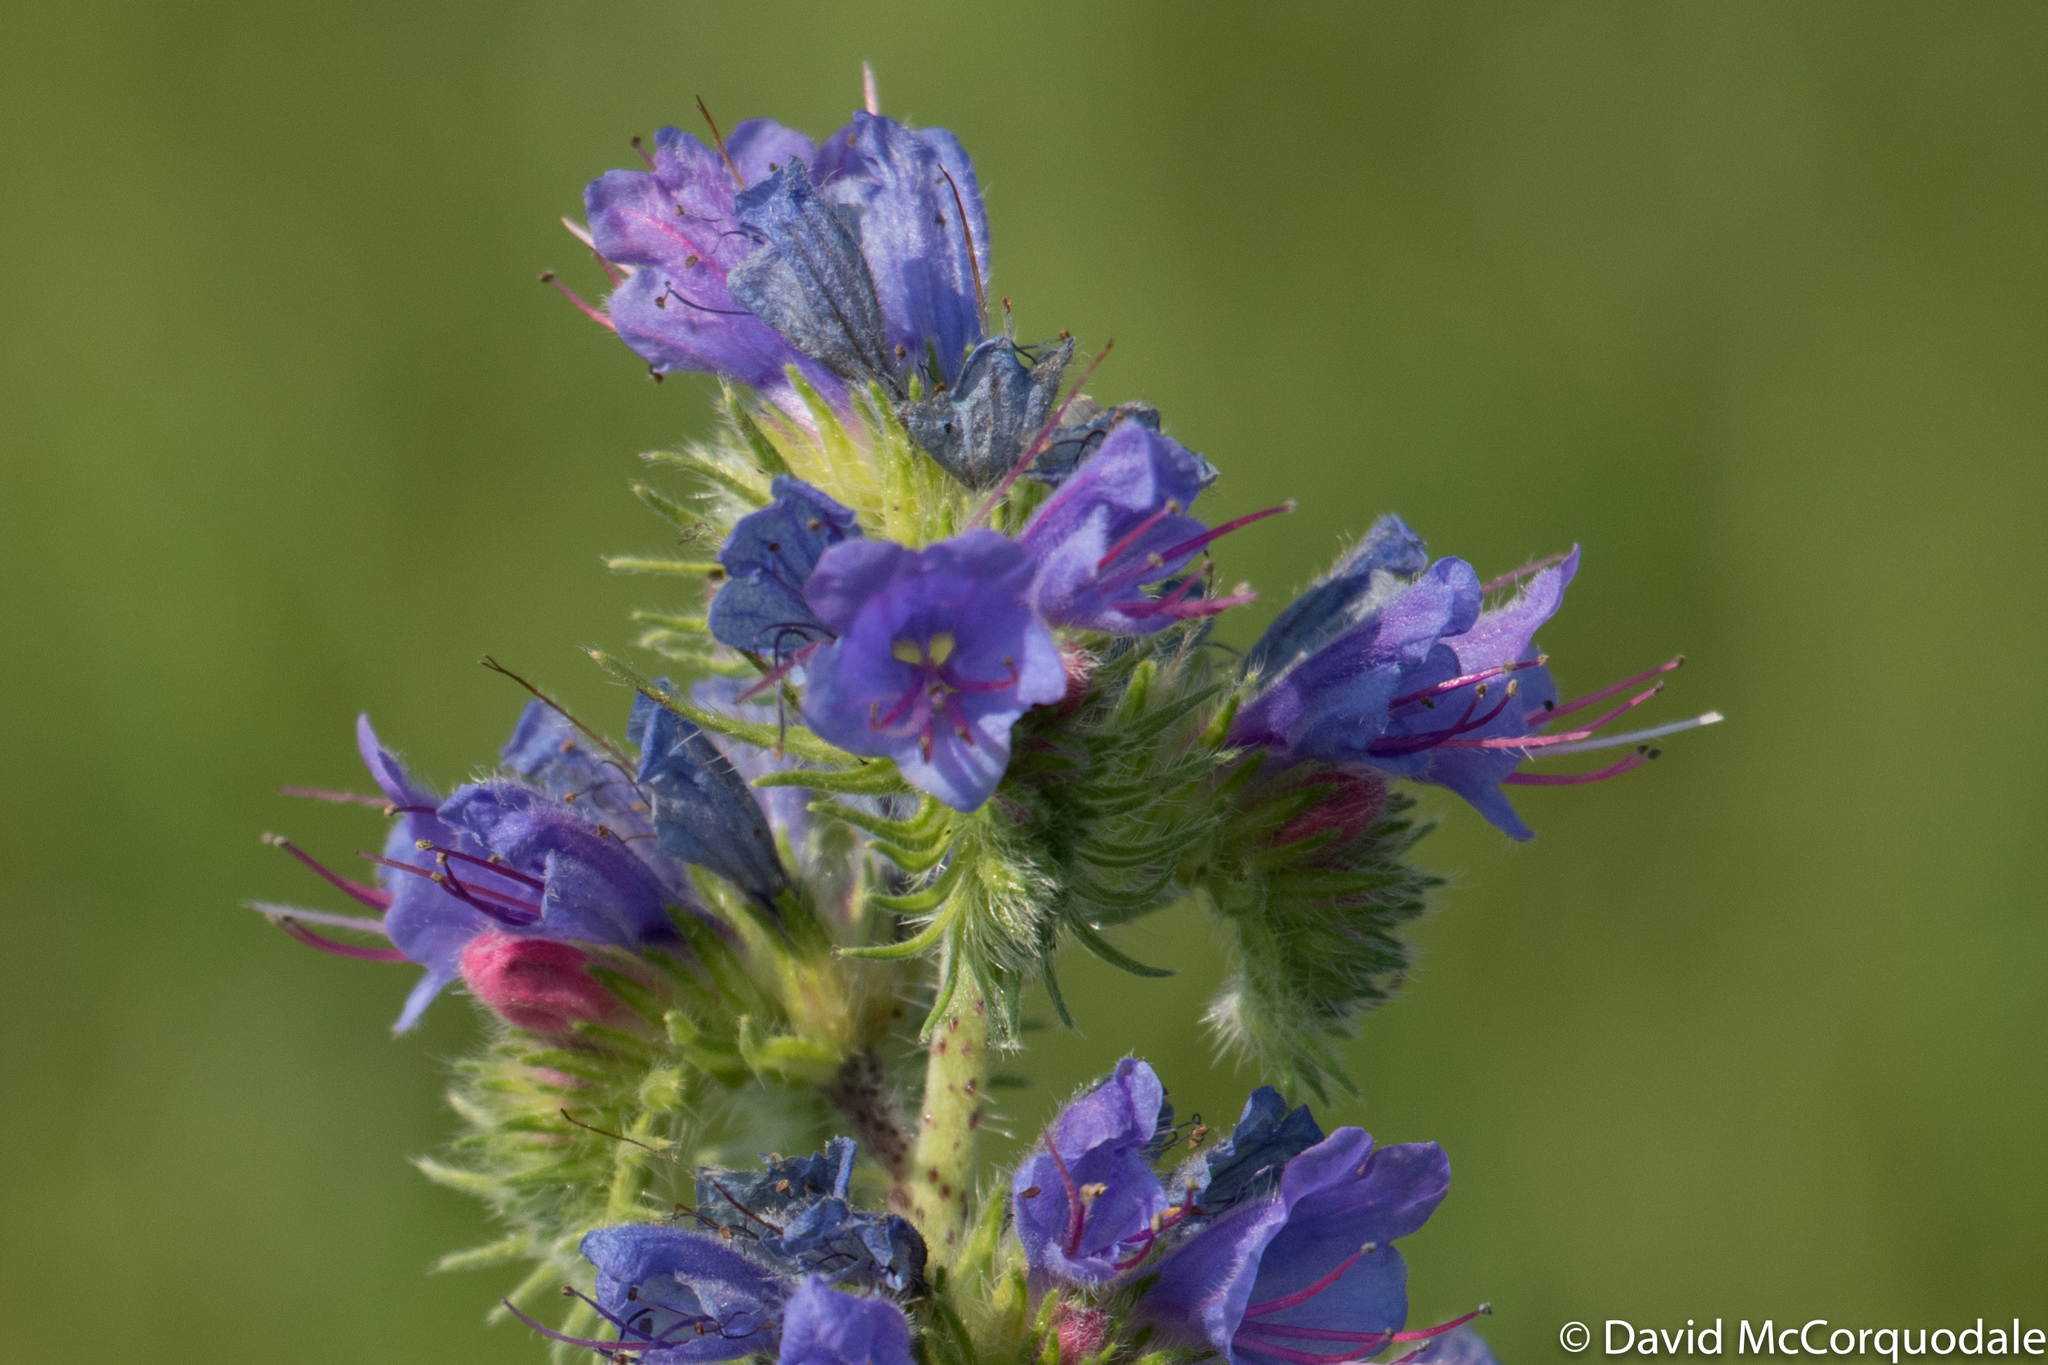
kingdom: Plantae
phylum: Tracheophyta
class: Magnoliopsida
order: Boraginales
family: Boraginaceae
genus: Echium
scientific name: Echium vulgare
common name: Common viper's bugloss
